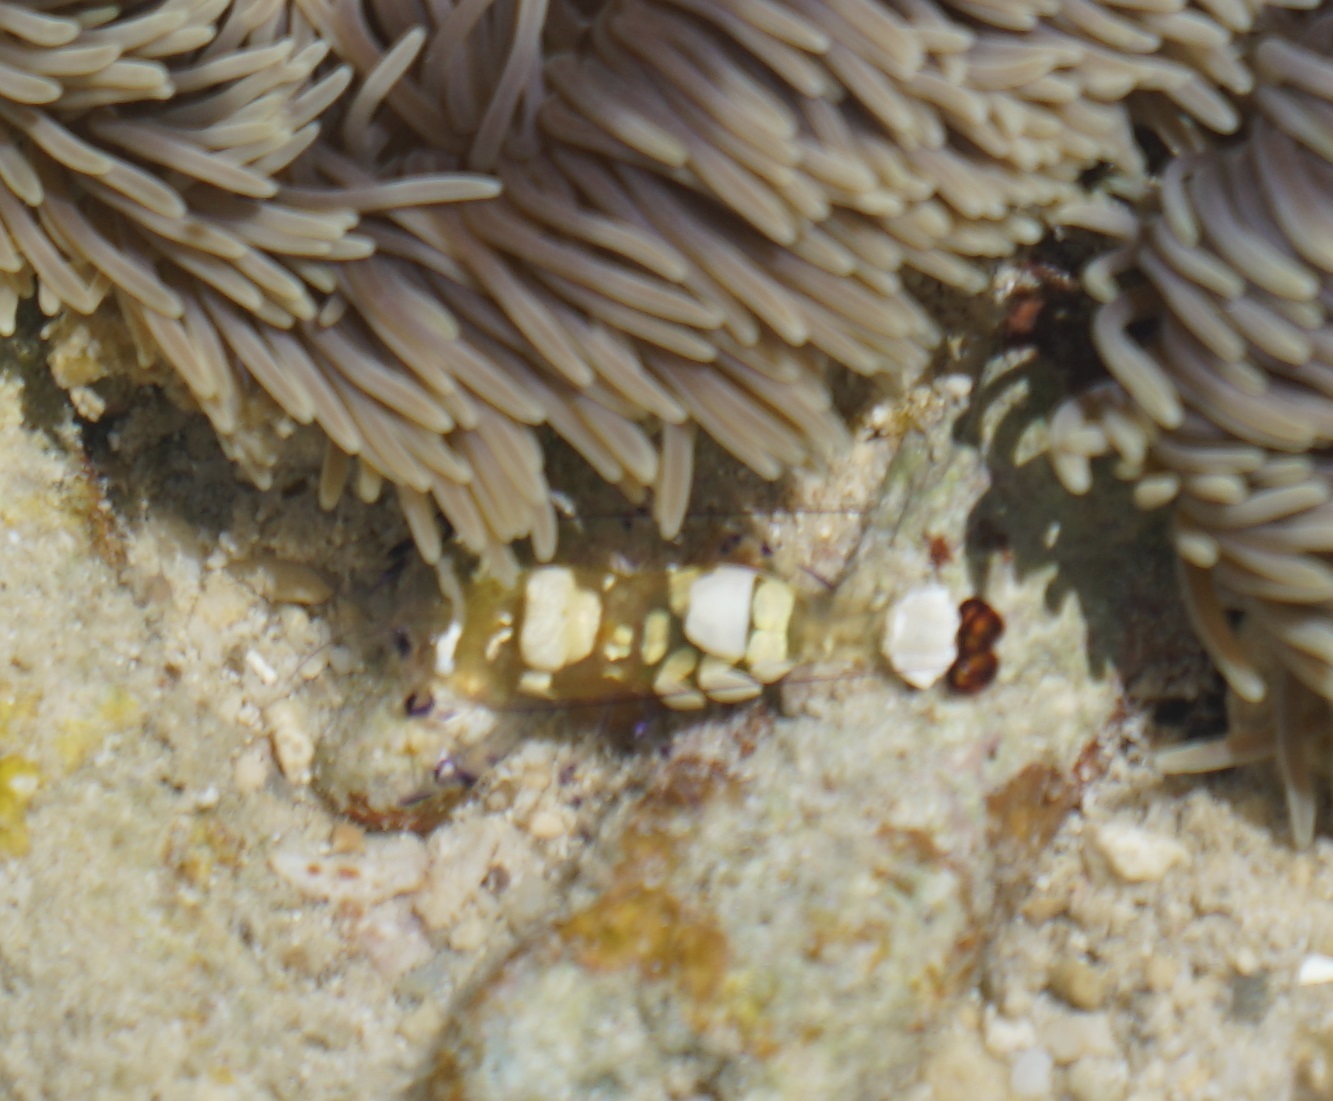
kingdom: Animalia
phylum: Arthropoda
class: Malacostraca
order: Decapoda
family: Palaemonidae
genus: Ancylocaris
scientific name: Ancylocaris brevicarpalis
